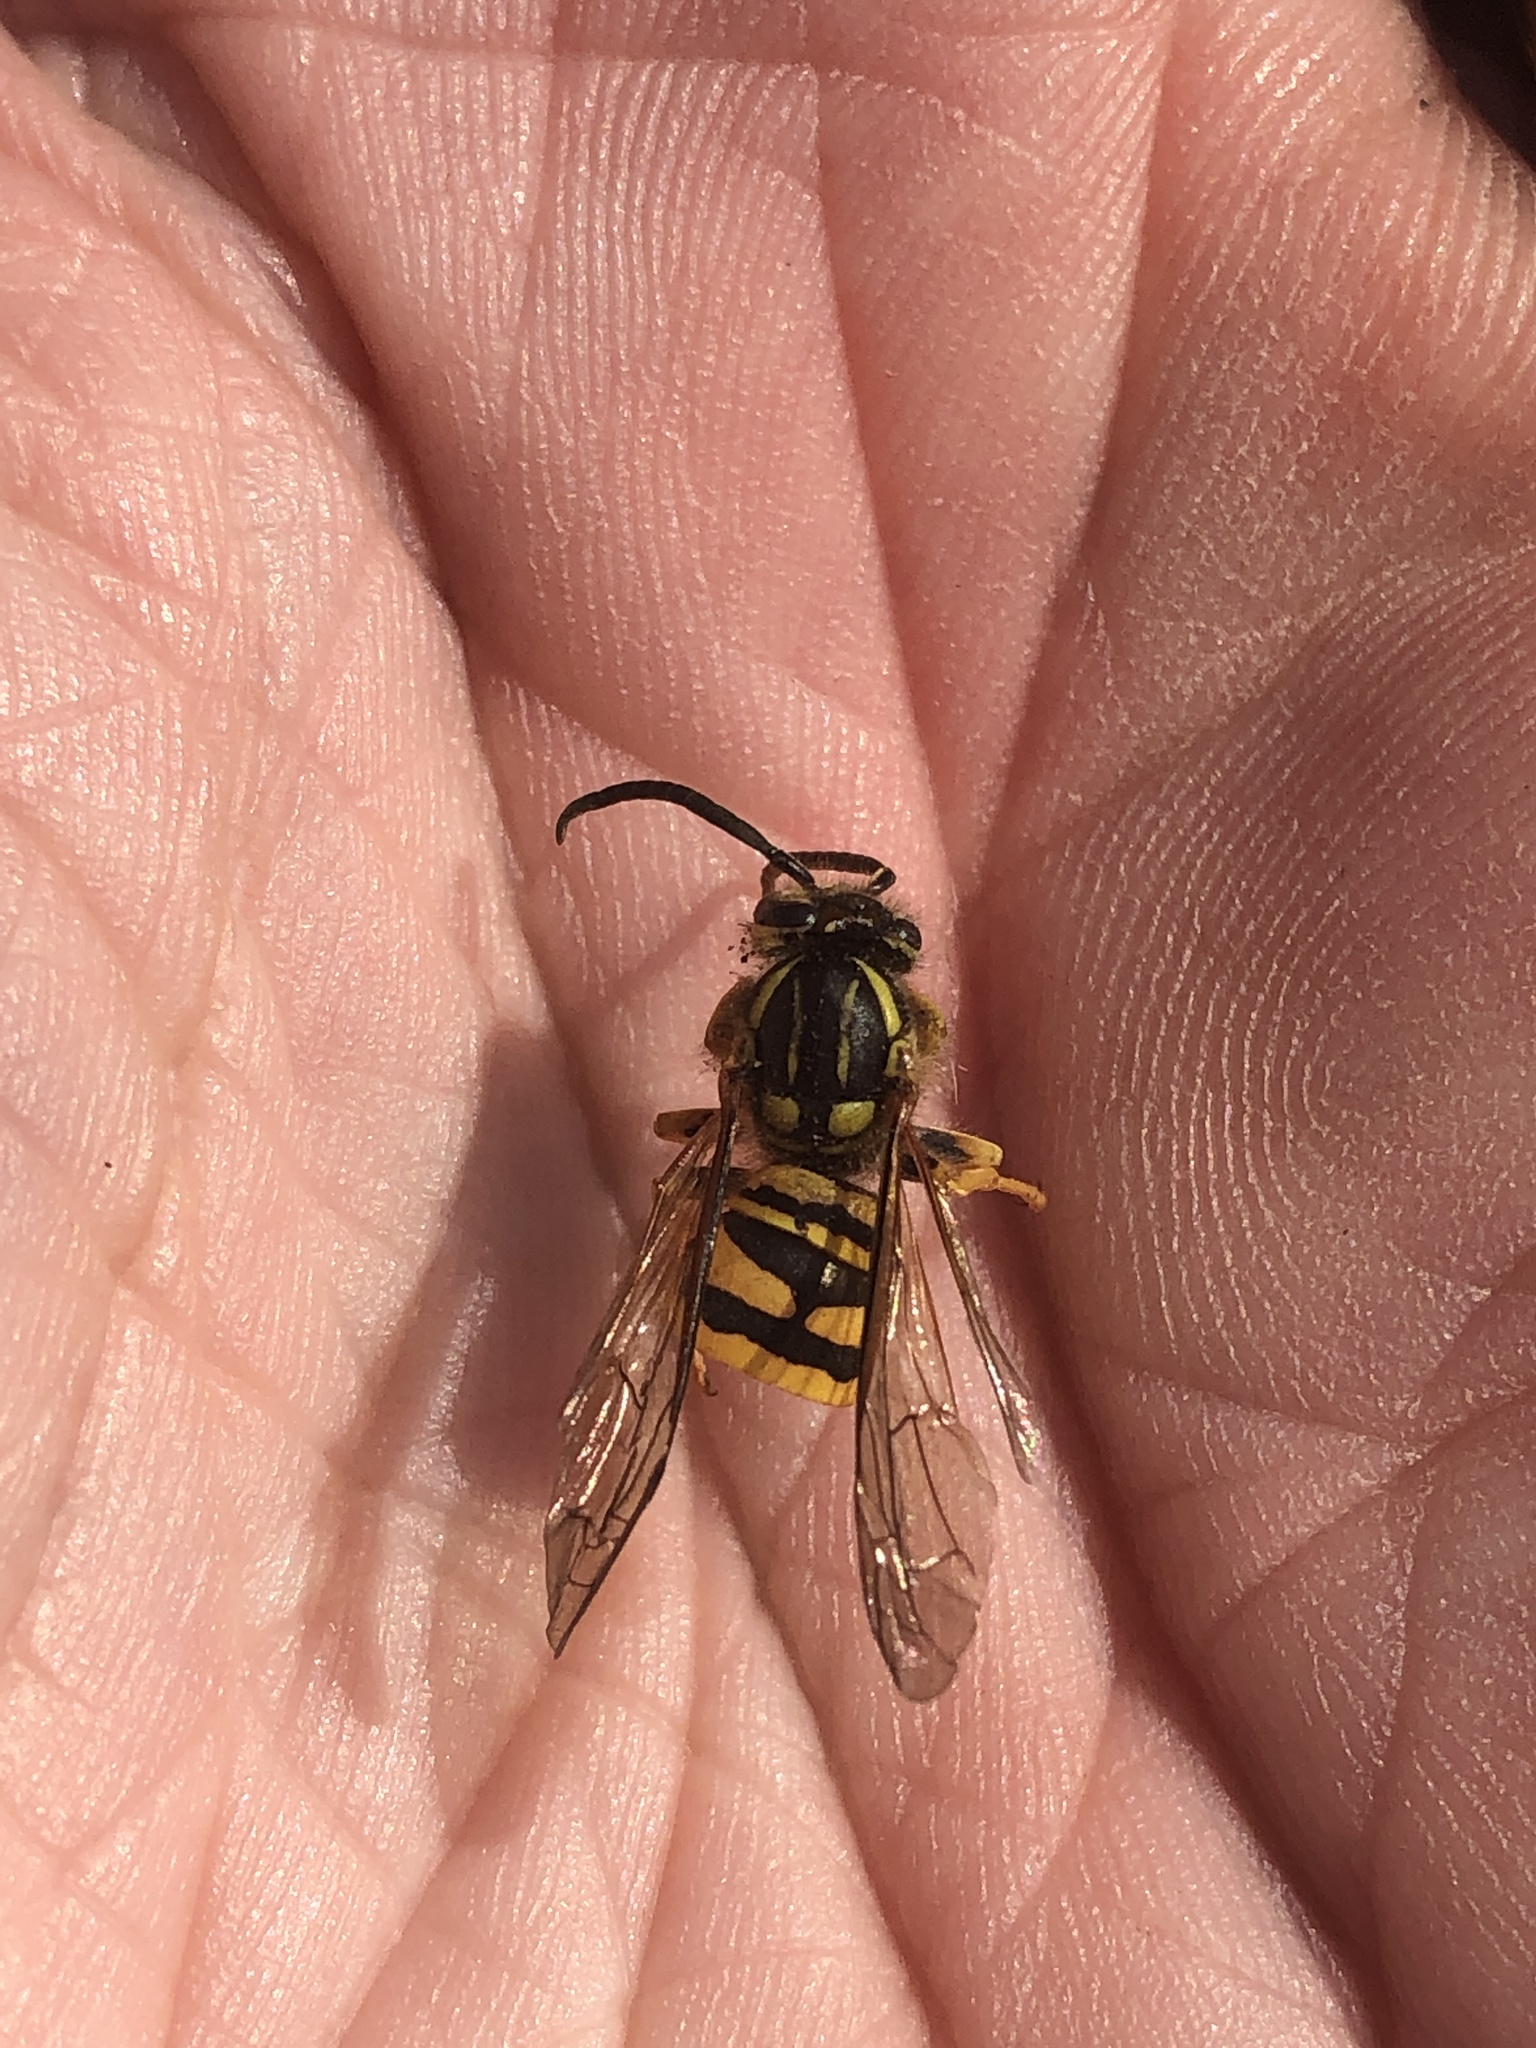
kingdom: Animalia
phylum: Arthropoda
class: Insecta
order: Hymenoptera
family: Vespidae
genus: Vespula
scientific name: Vespula squamosa
